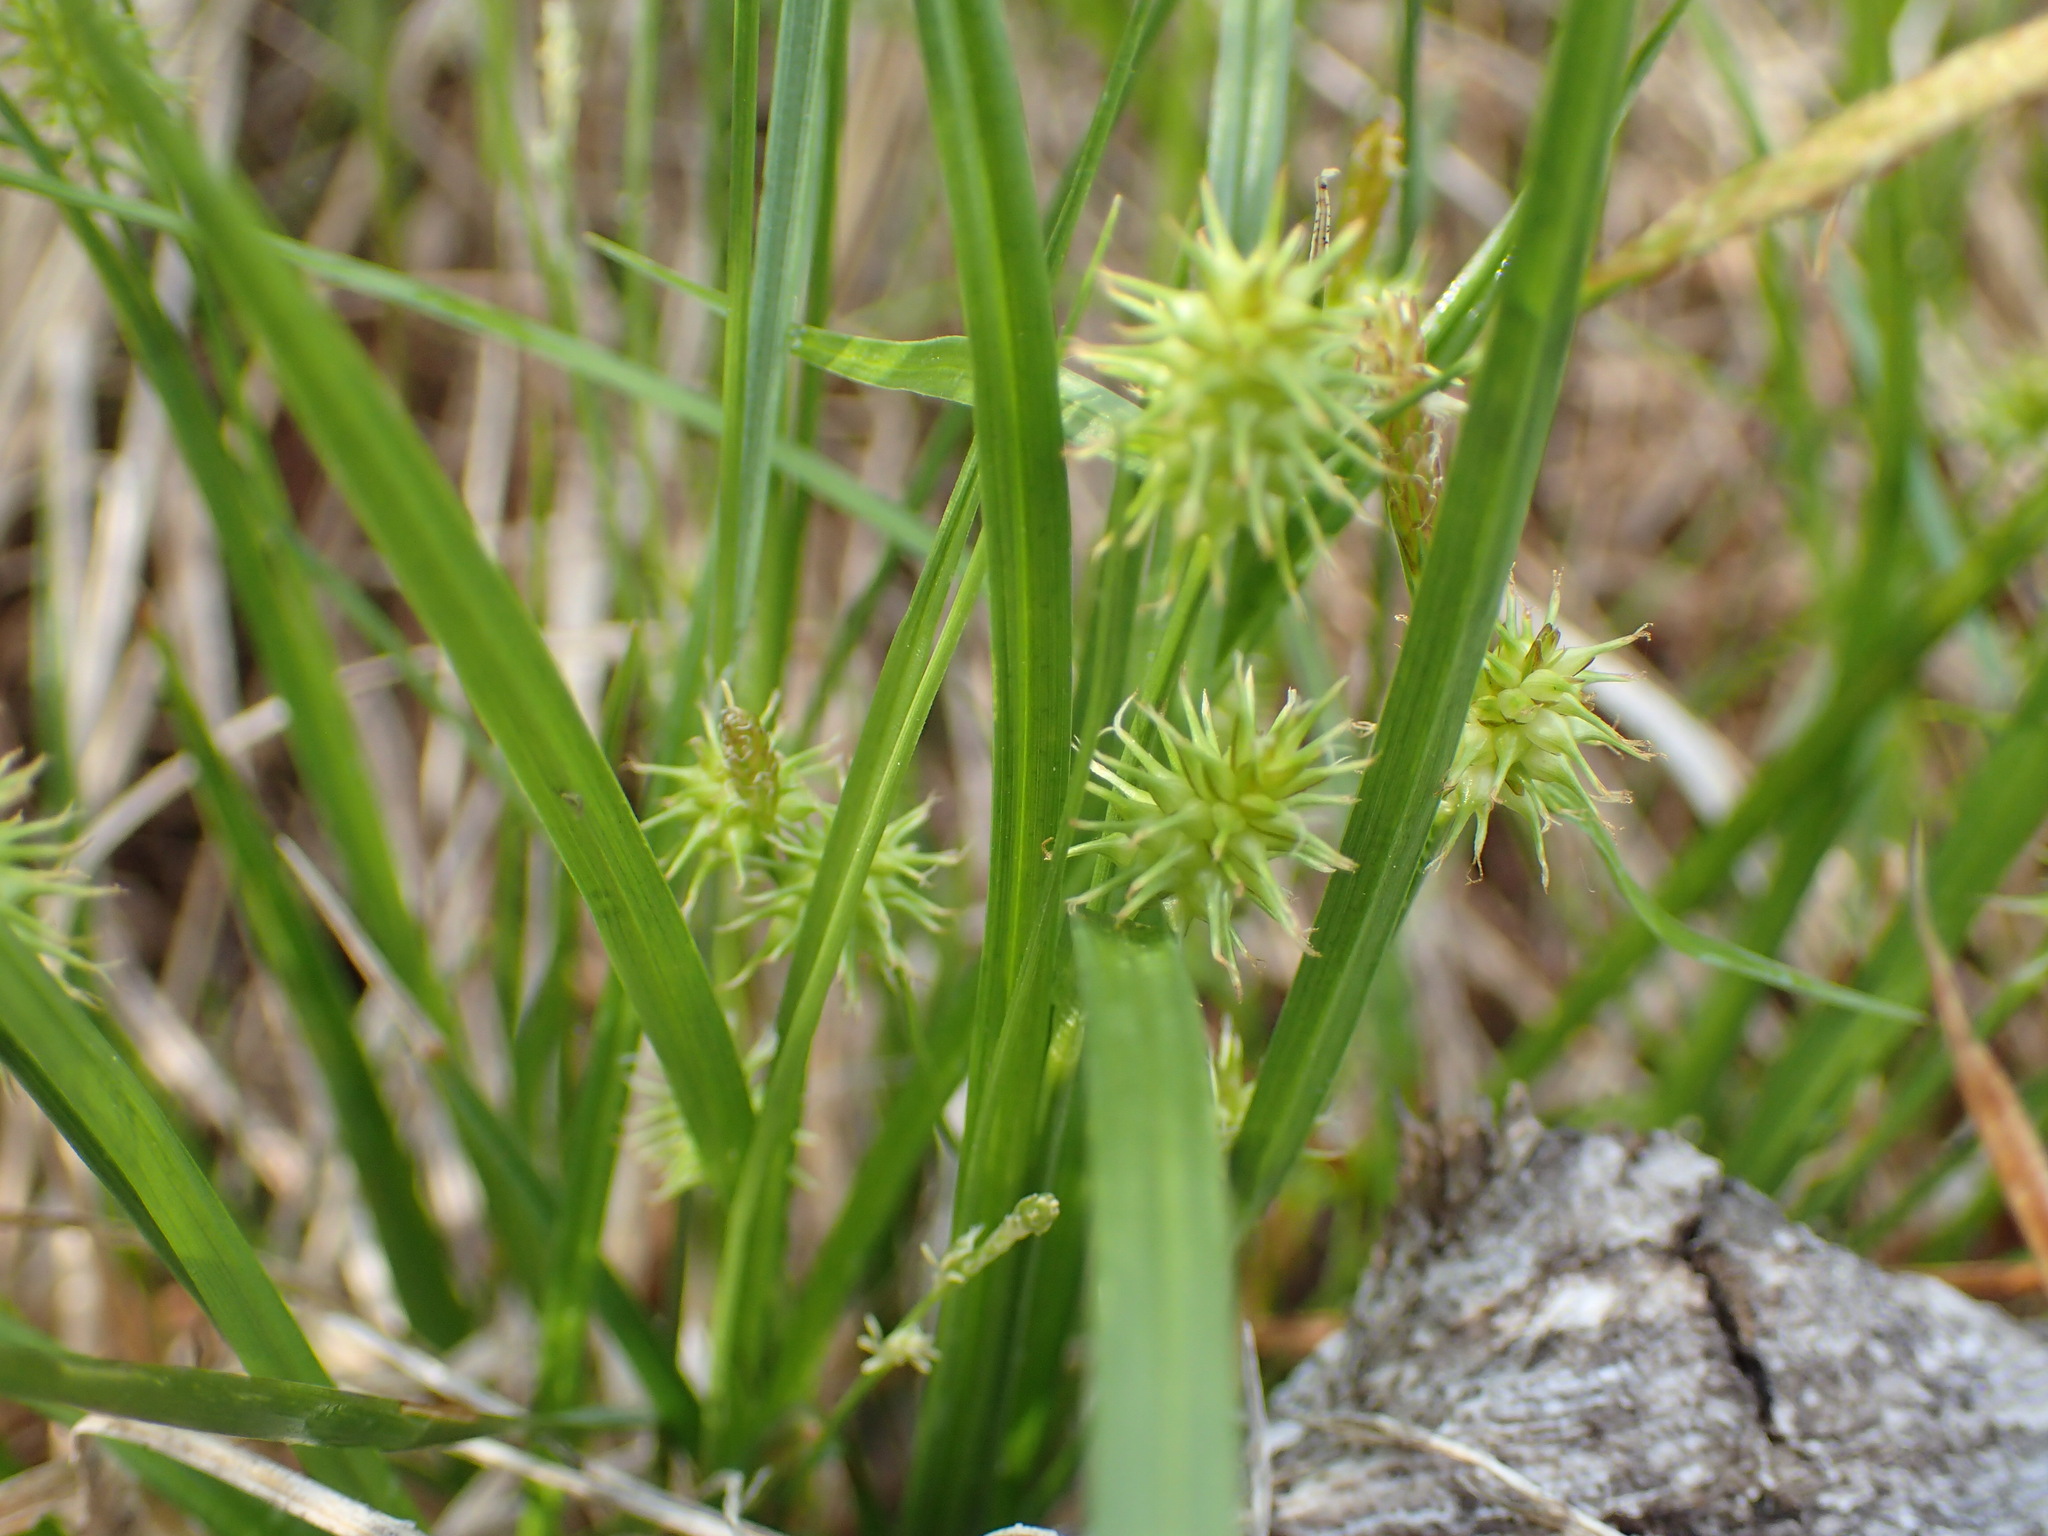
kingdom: Plantae
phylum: Tracheophyta
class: Liliopsida
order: Poales
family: Cyperaceae
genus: Carex
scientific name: Carex flava
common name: Large yellow-sedge
